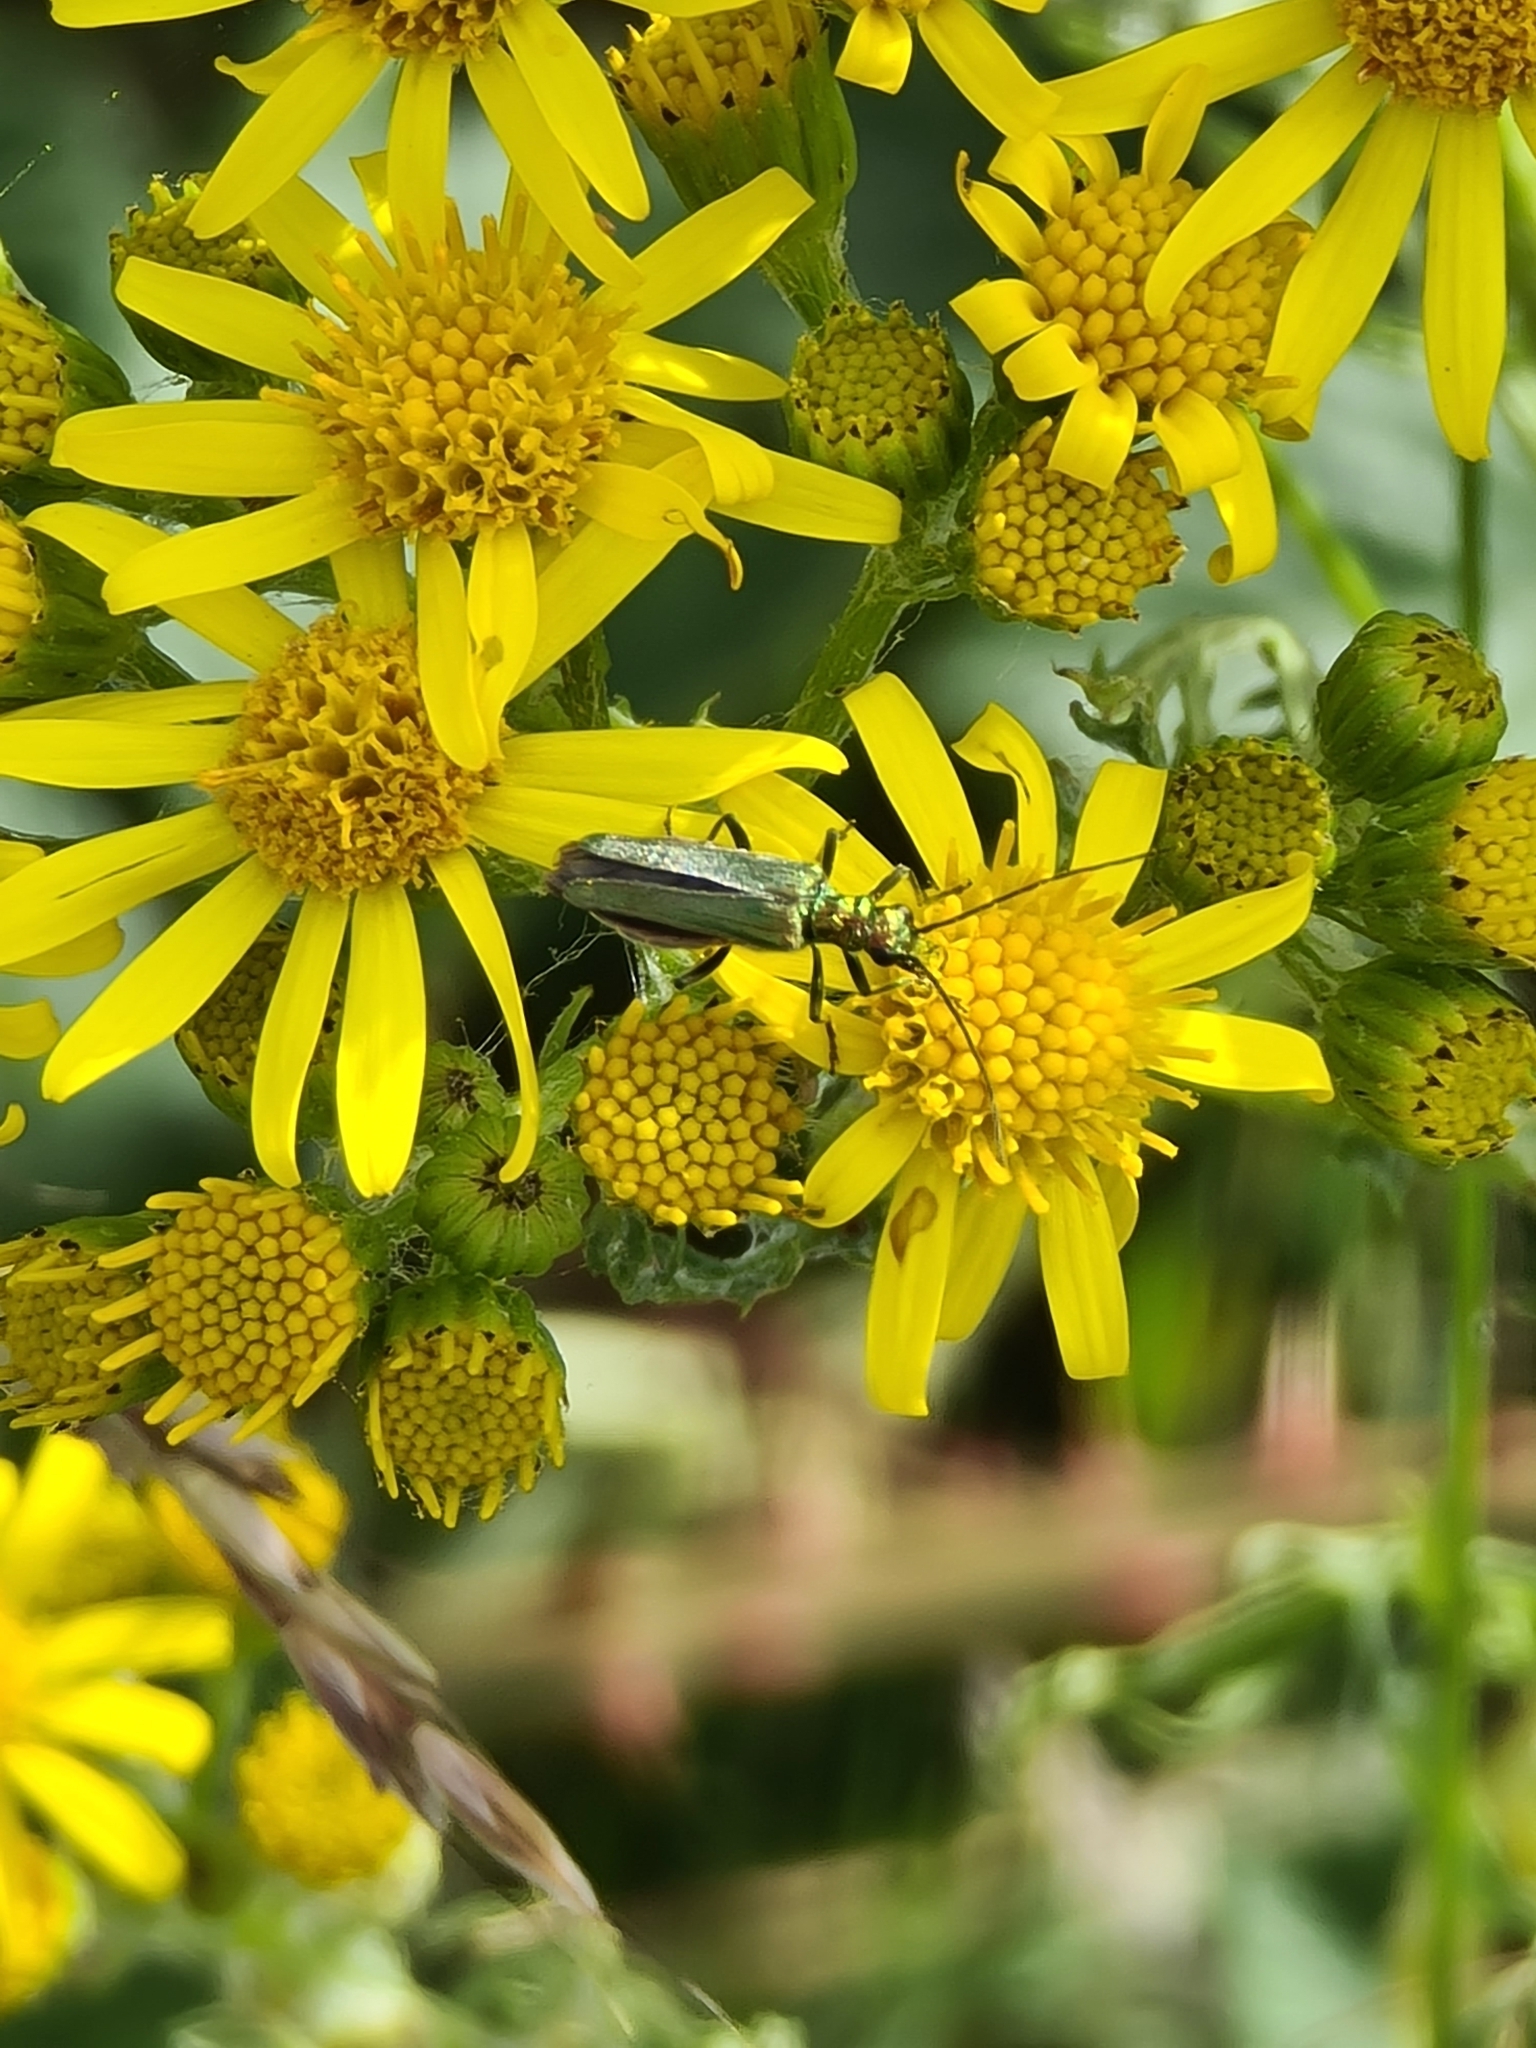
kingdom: Animalia
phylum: Arthropoda
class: Insecta
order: Coleoptera
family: Oedemeridae
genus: Oedemera
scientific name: Oedemera nobilis
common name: Swollen-thighed beetle
